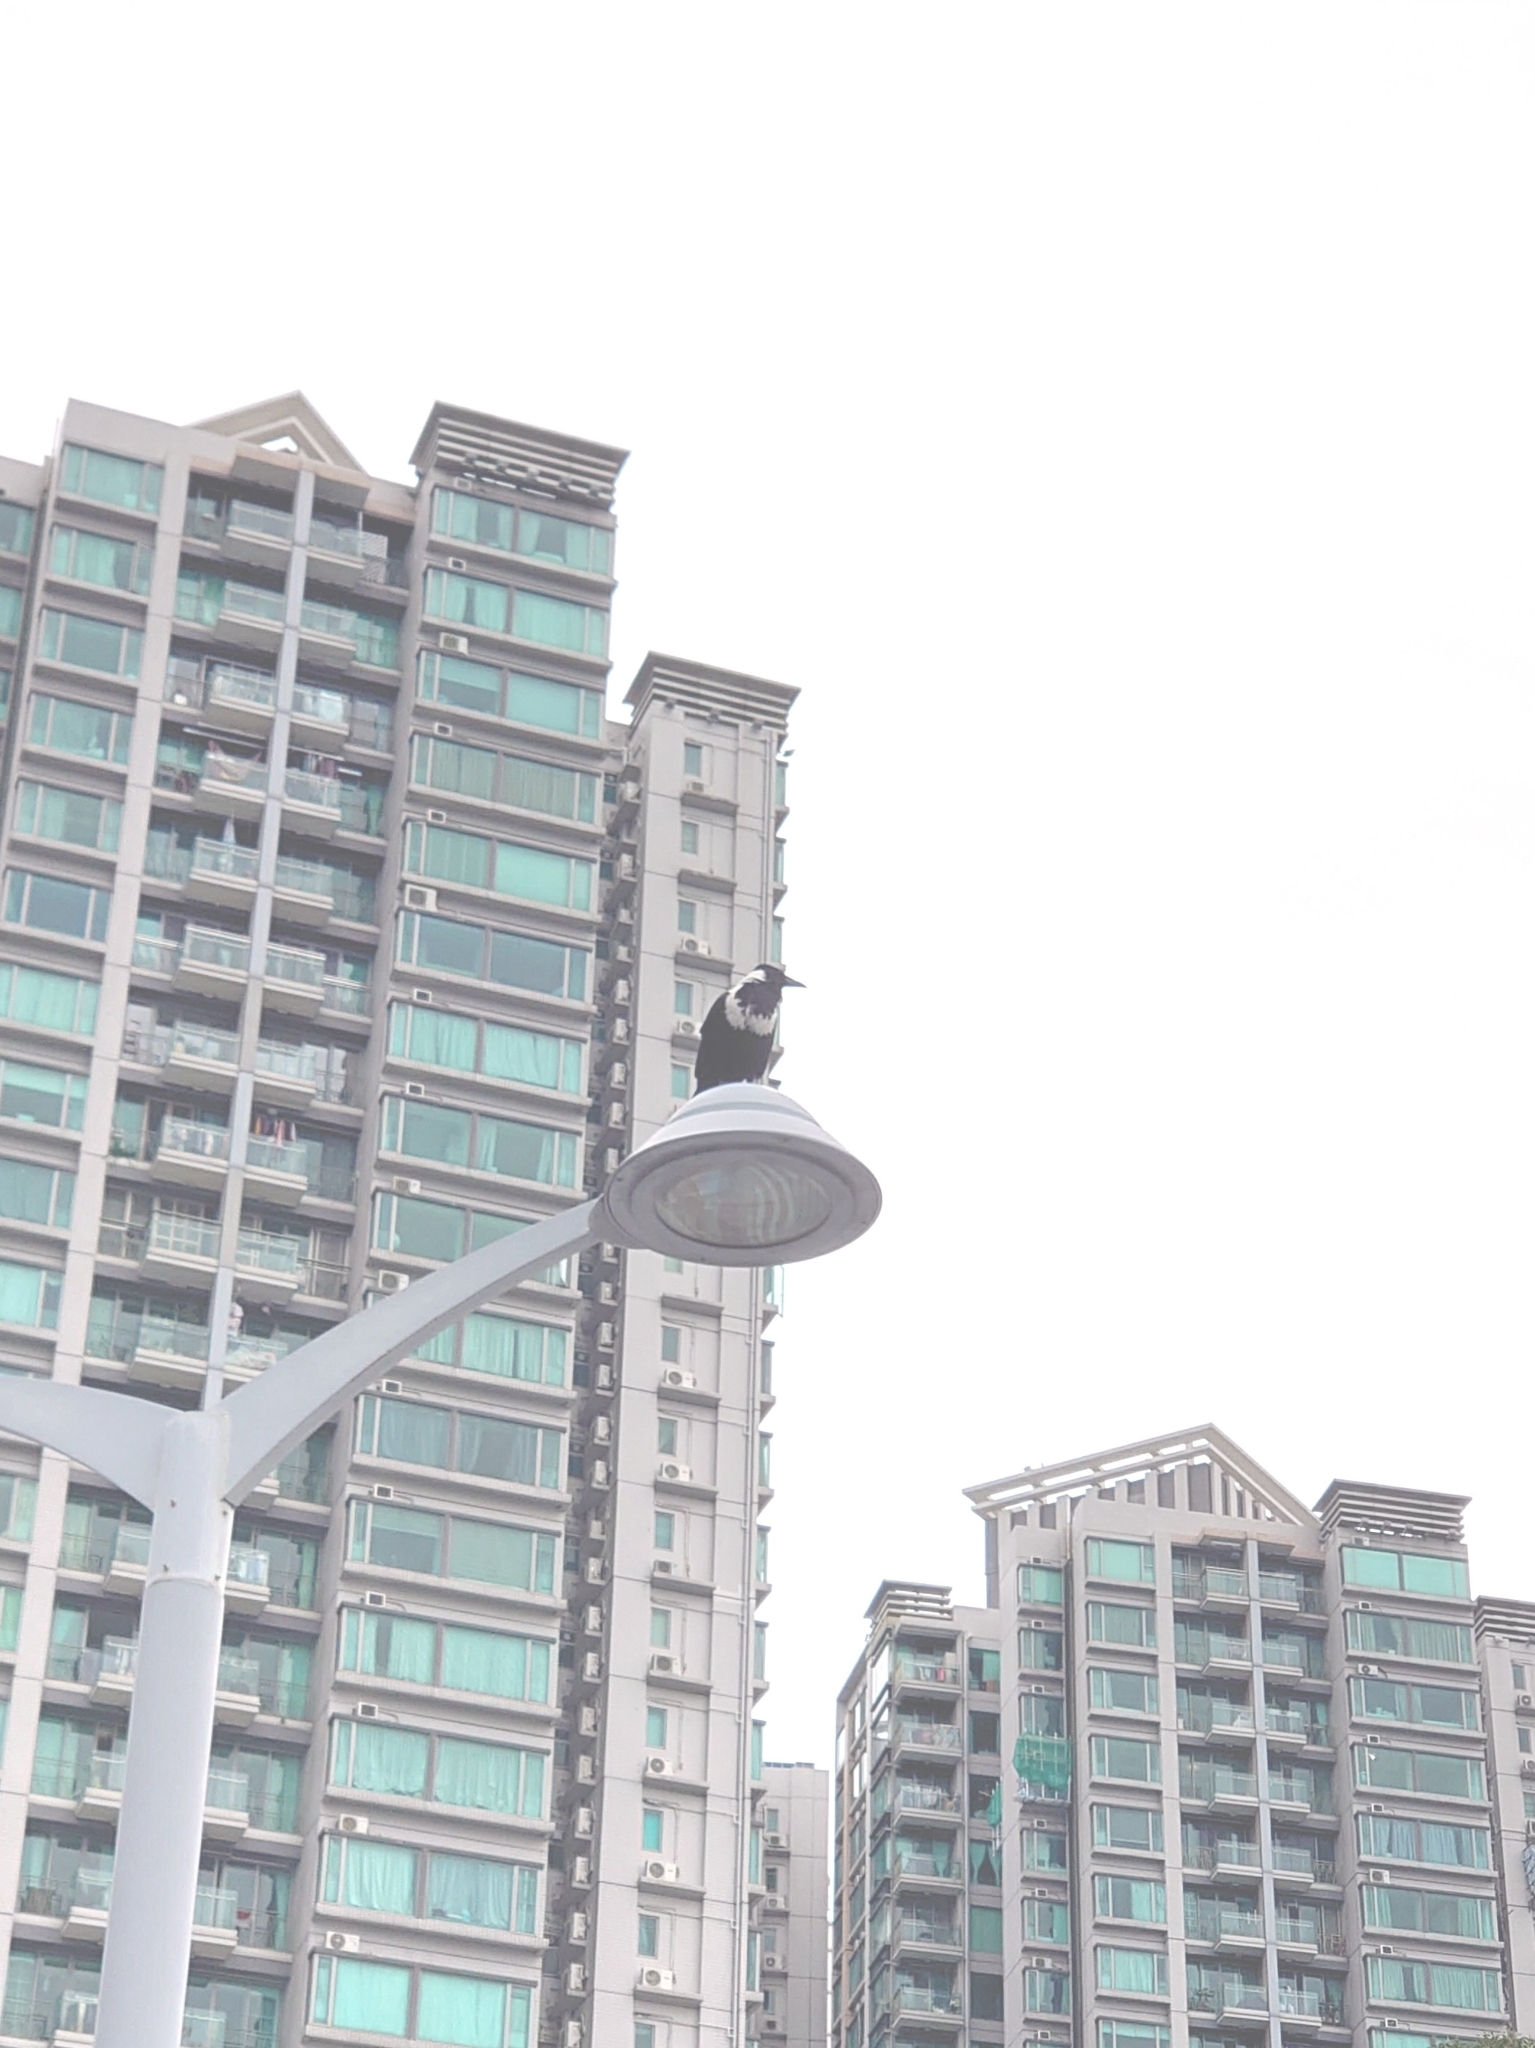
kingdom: Animalia
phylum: Chordata
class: Aves
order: Passeriformes
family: Corvidae
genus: Corvus
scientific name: Corvus pectoralis
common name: Collared crow
